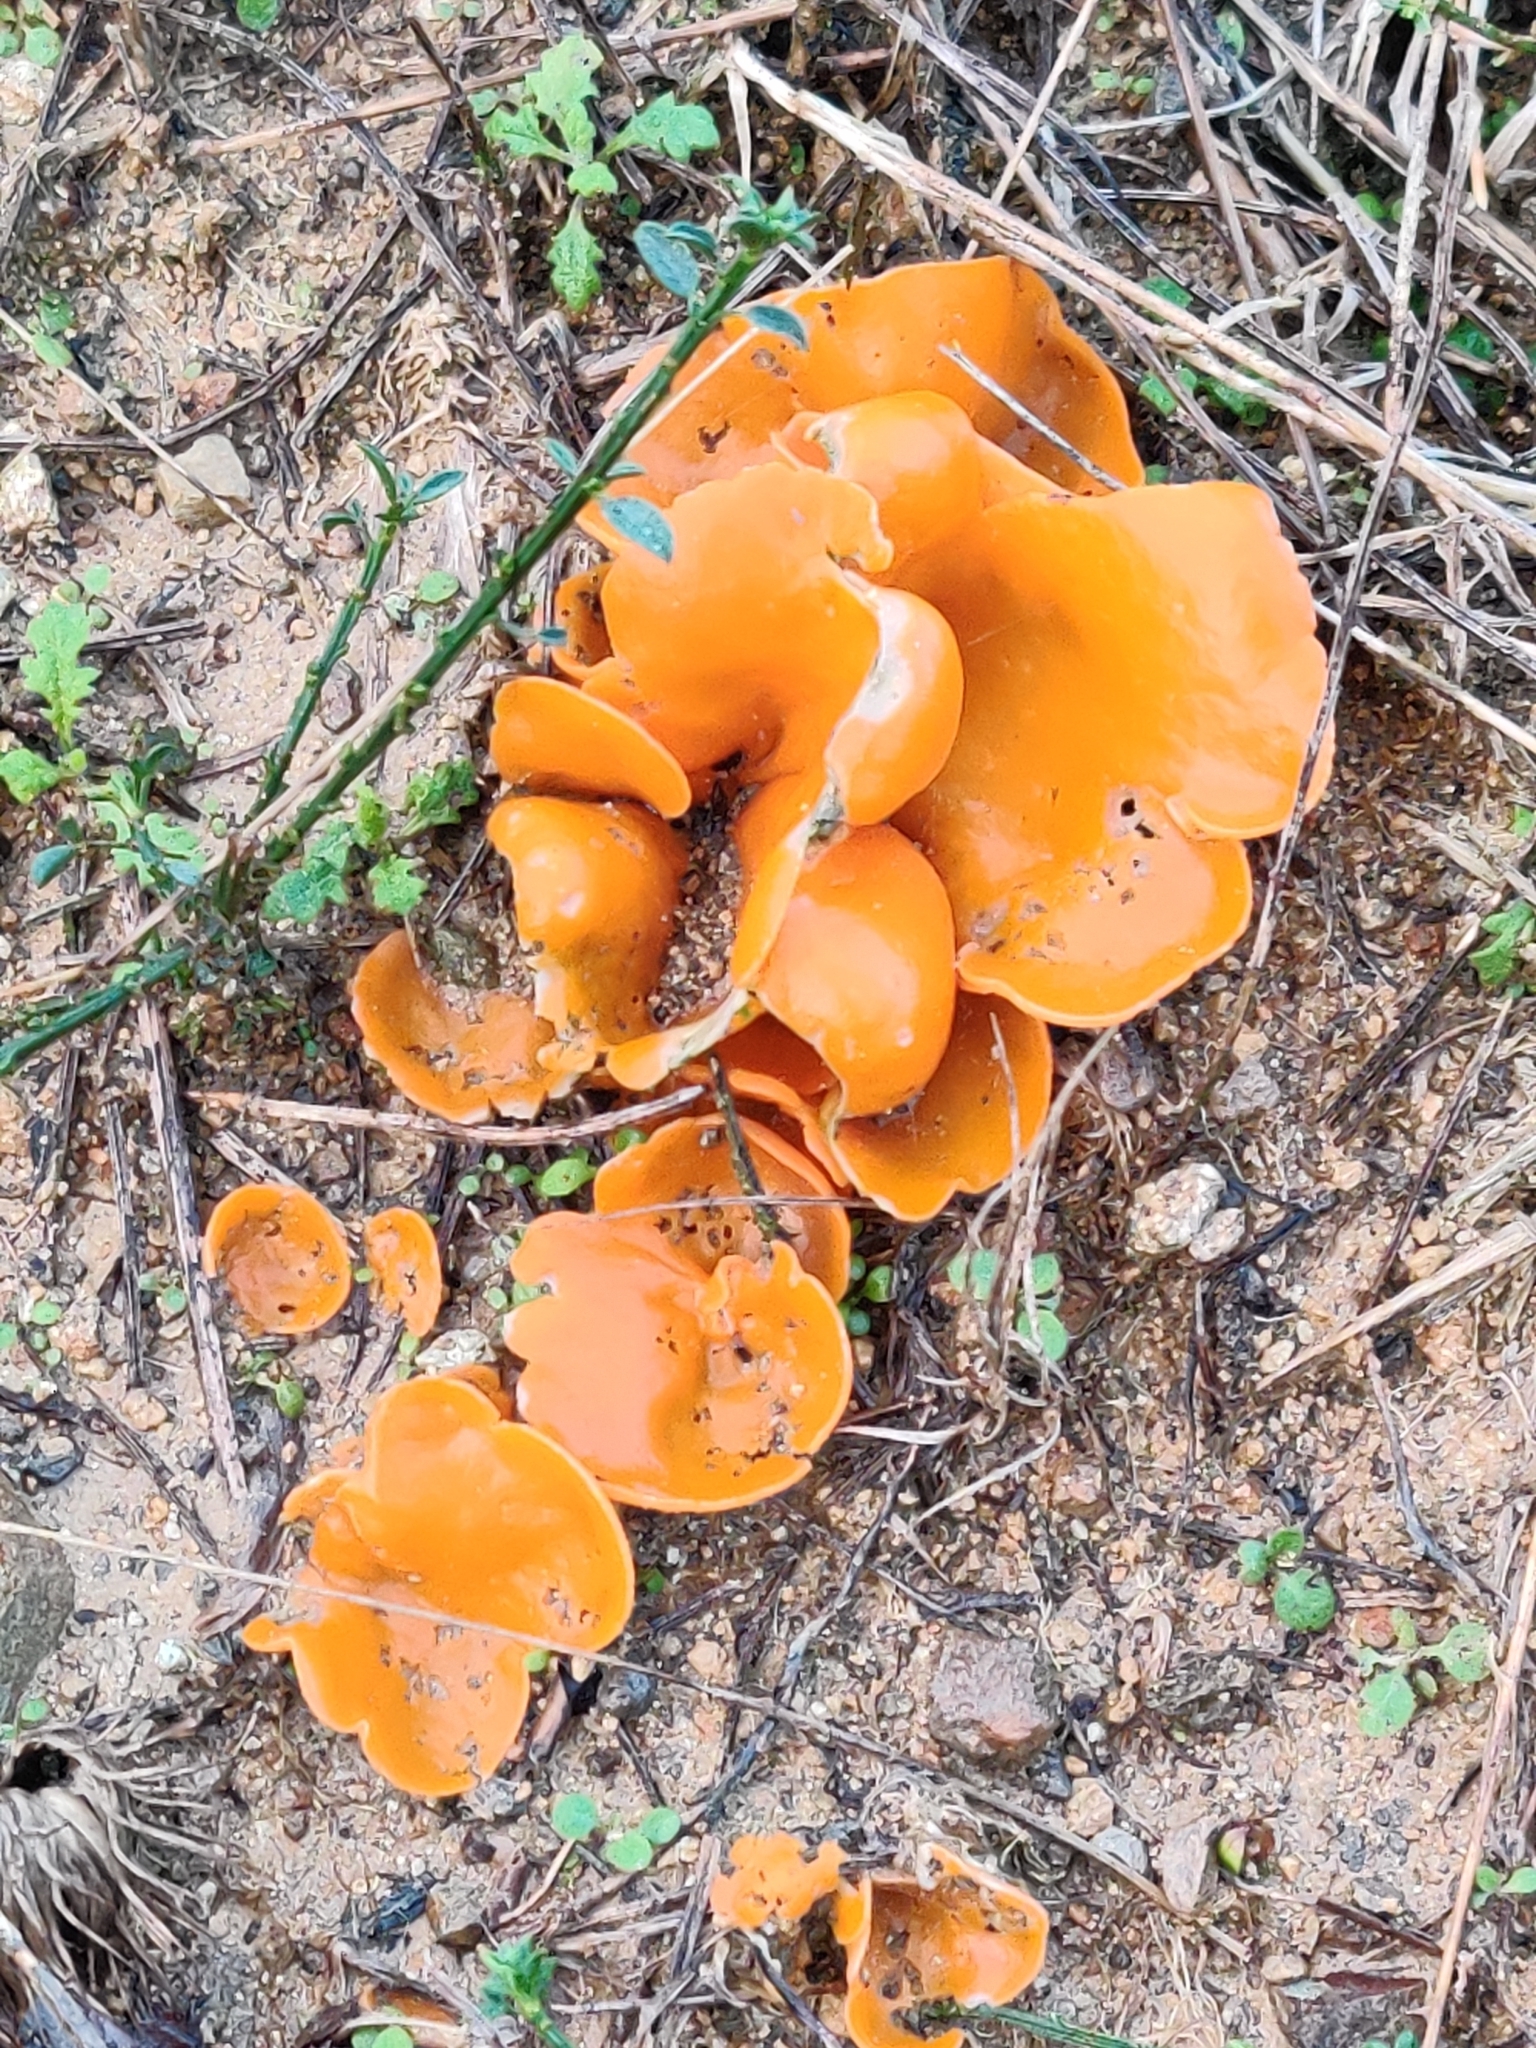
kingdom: Fungi
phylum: Ascomycota
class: Pezizomycetes
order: Pezizales
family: Pyronemataceae
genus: Aleuria
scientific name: Aleuria aurantia
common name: Orange peel fungus
